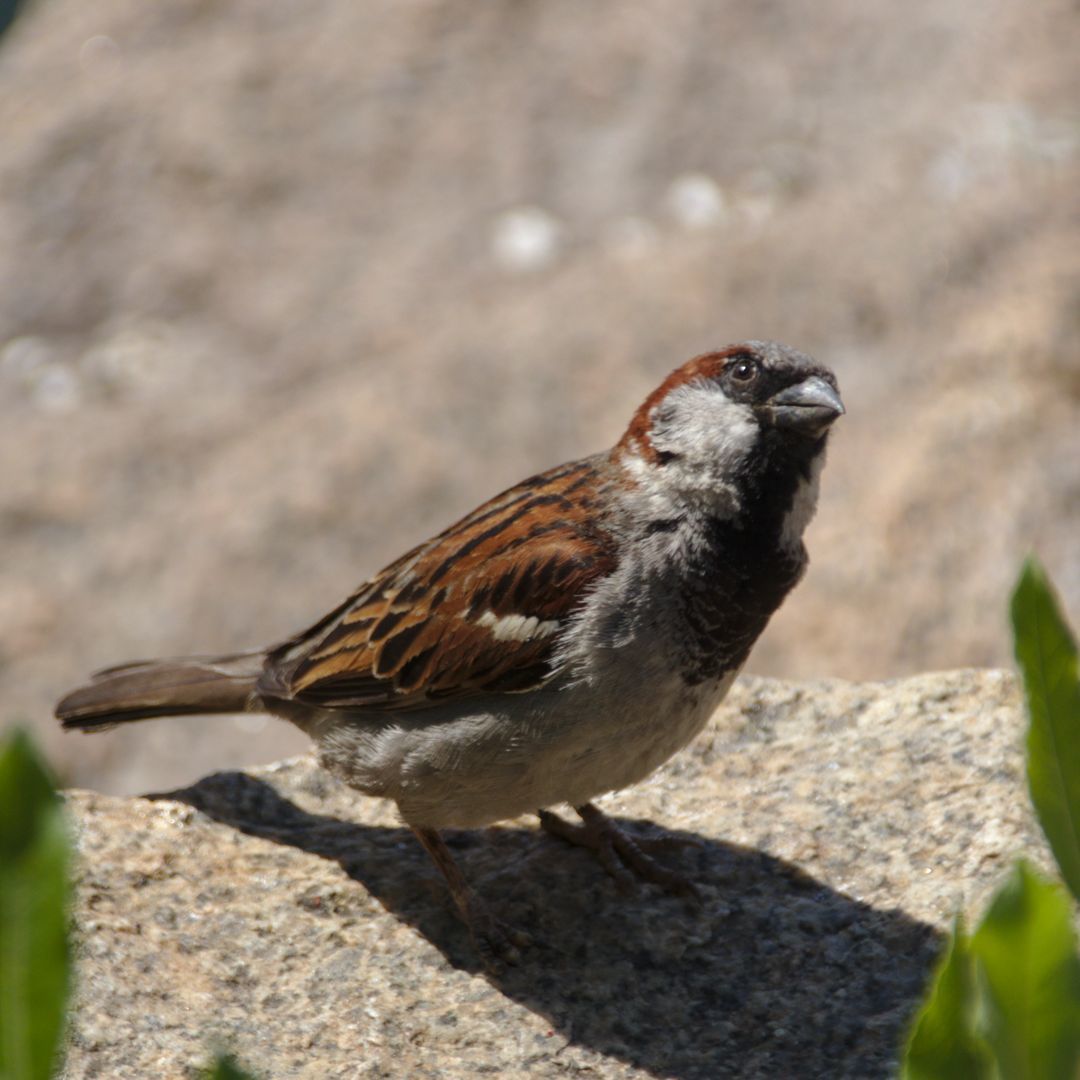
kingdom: Animalia
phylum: Chordata
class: Aves
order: Passeriformes
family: Passeridae
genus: Passer
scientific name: Passer domesticus
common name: House sparrow
